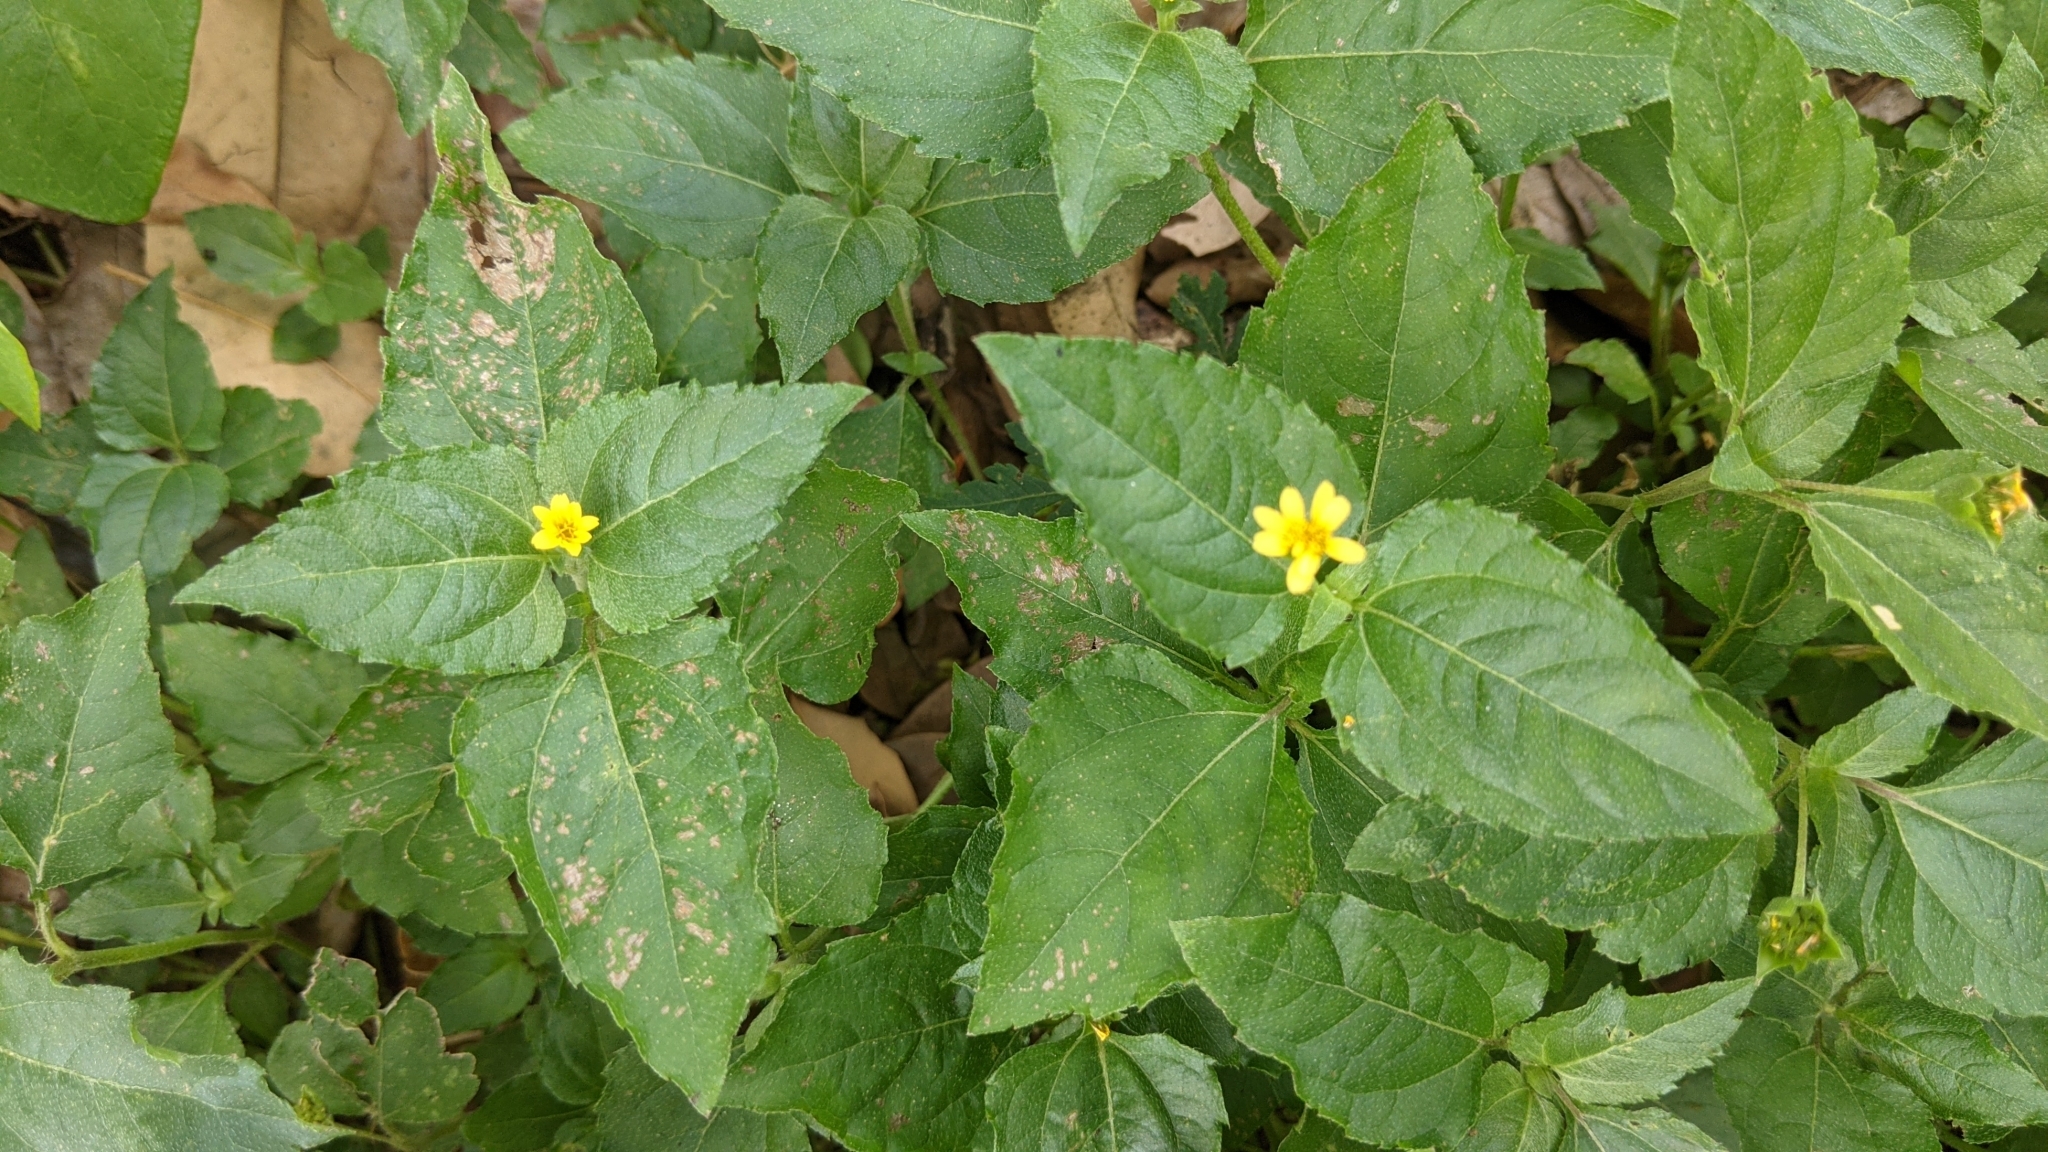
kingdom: Plantae
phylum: Tracheophyta
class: Magnoliopsida
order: Asterales
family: Asteraceae
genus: Calyptocarpus
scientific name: Calyptocarpus vialis
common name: Straggler daisy
